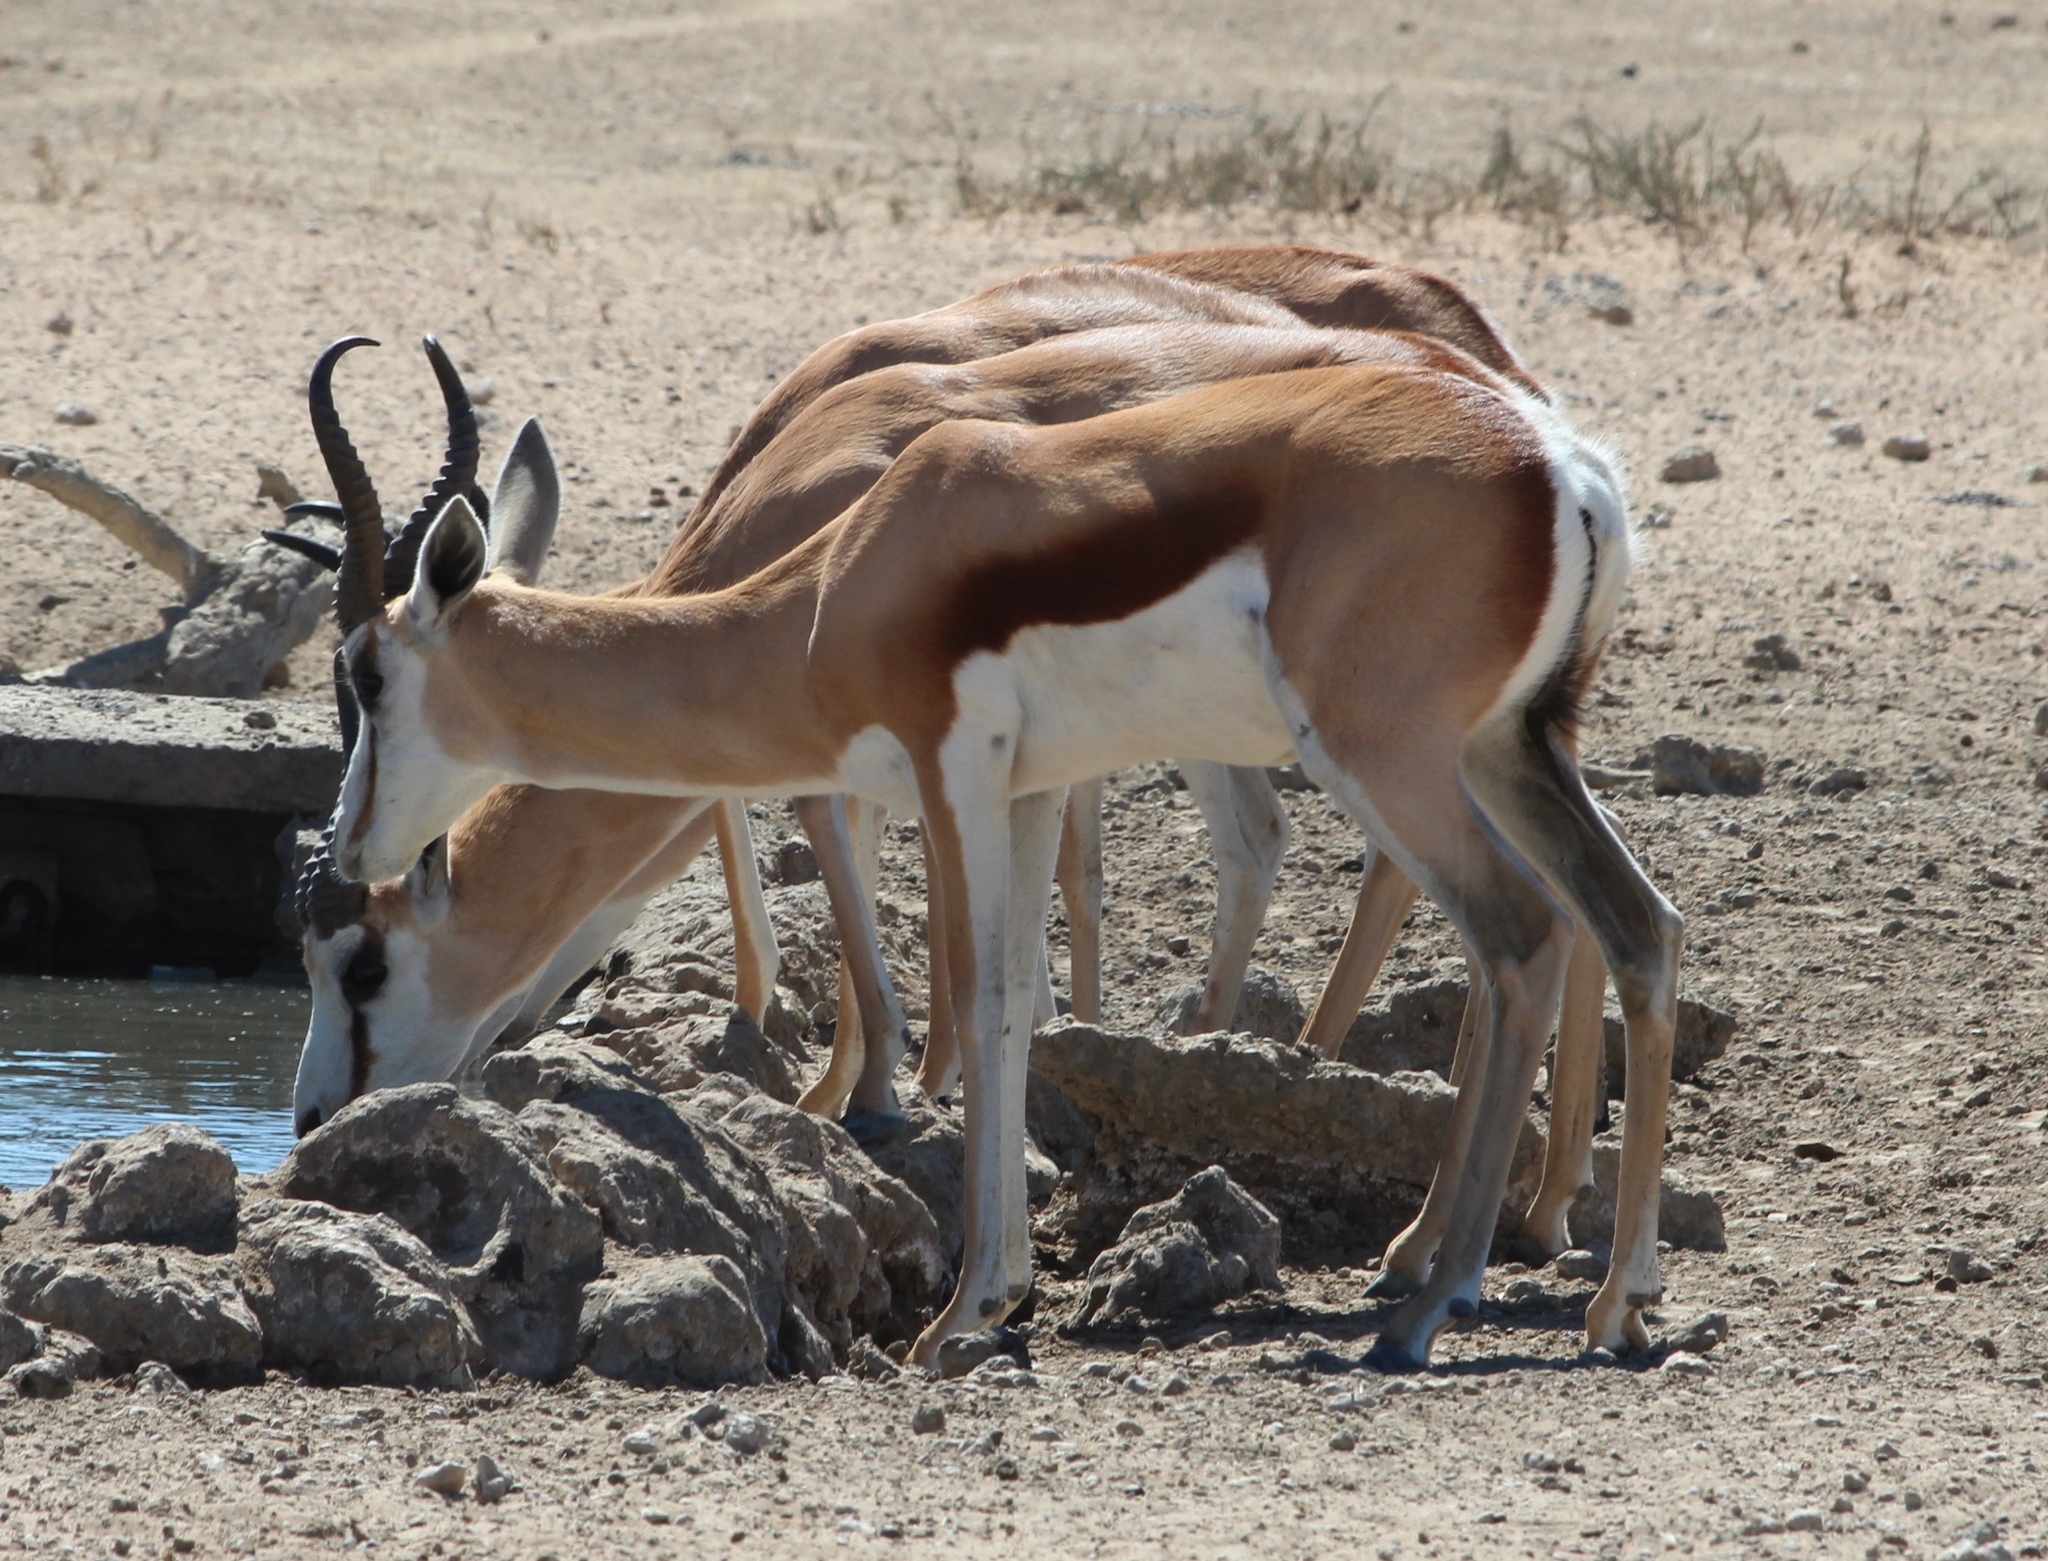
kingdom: Animalia
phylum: Chordata
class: Mammalia
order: Artiodactyla
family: Bovidae
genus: Antidorcas
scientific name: Antidorcas marsupialis
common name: Springbok
